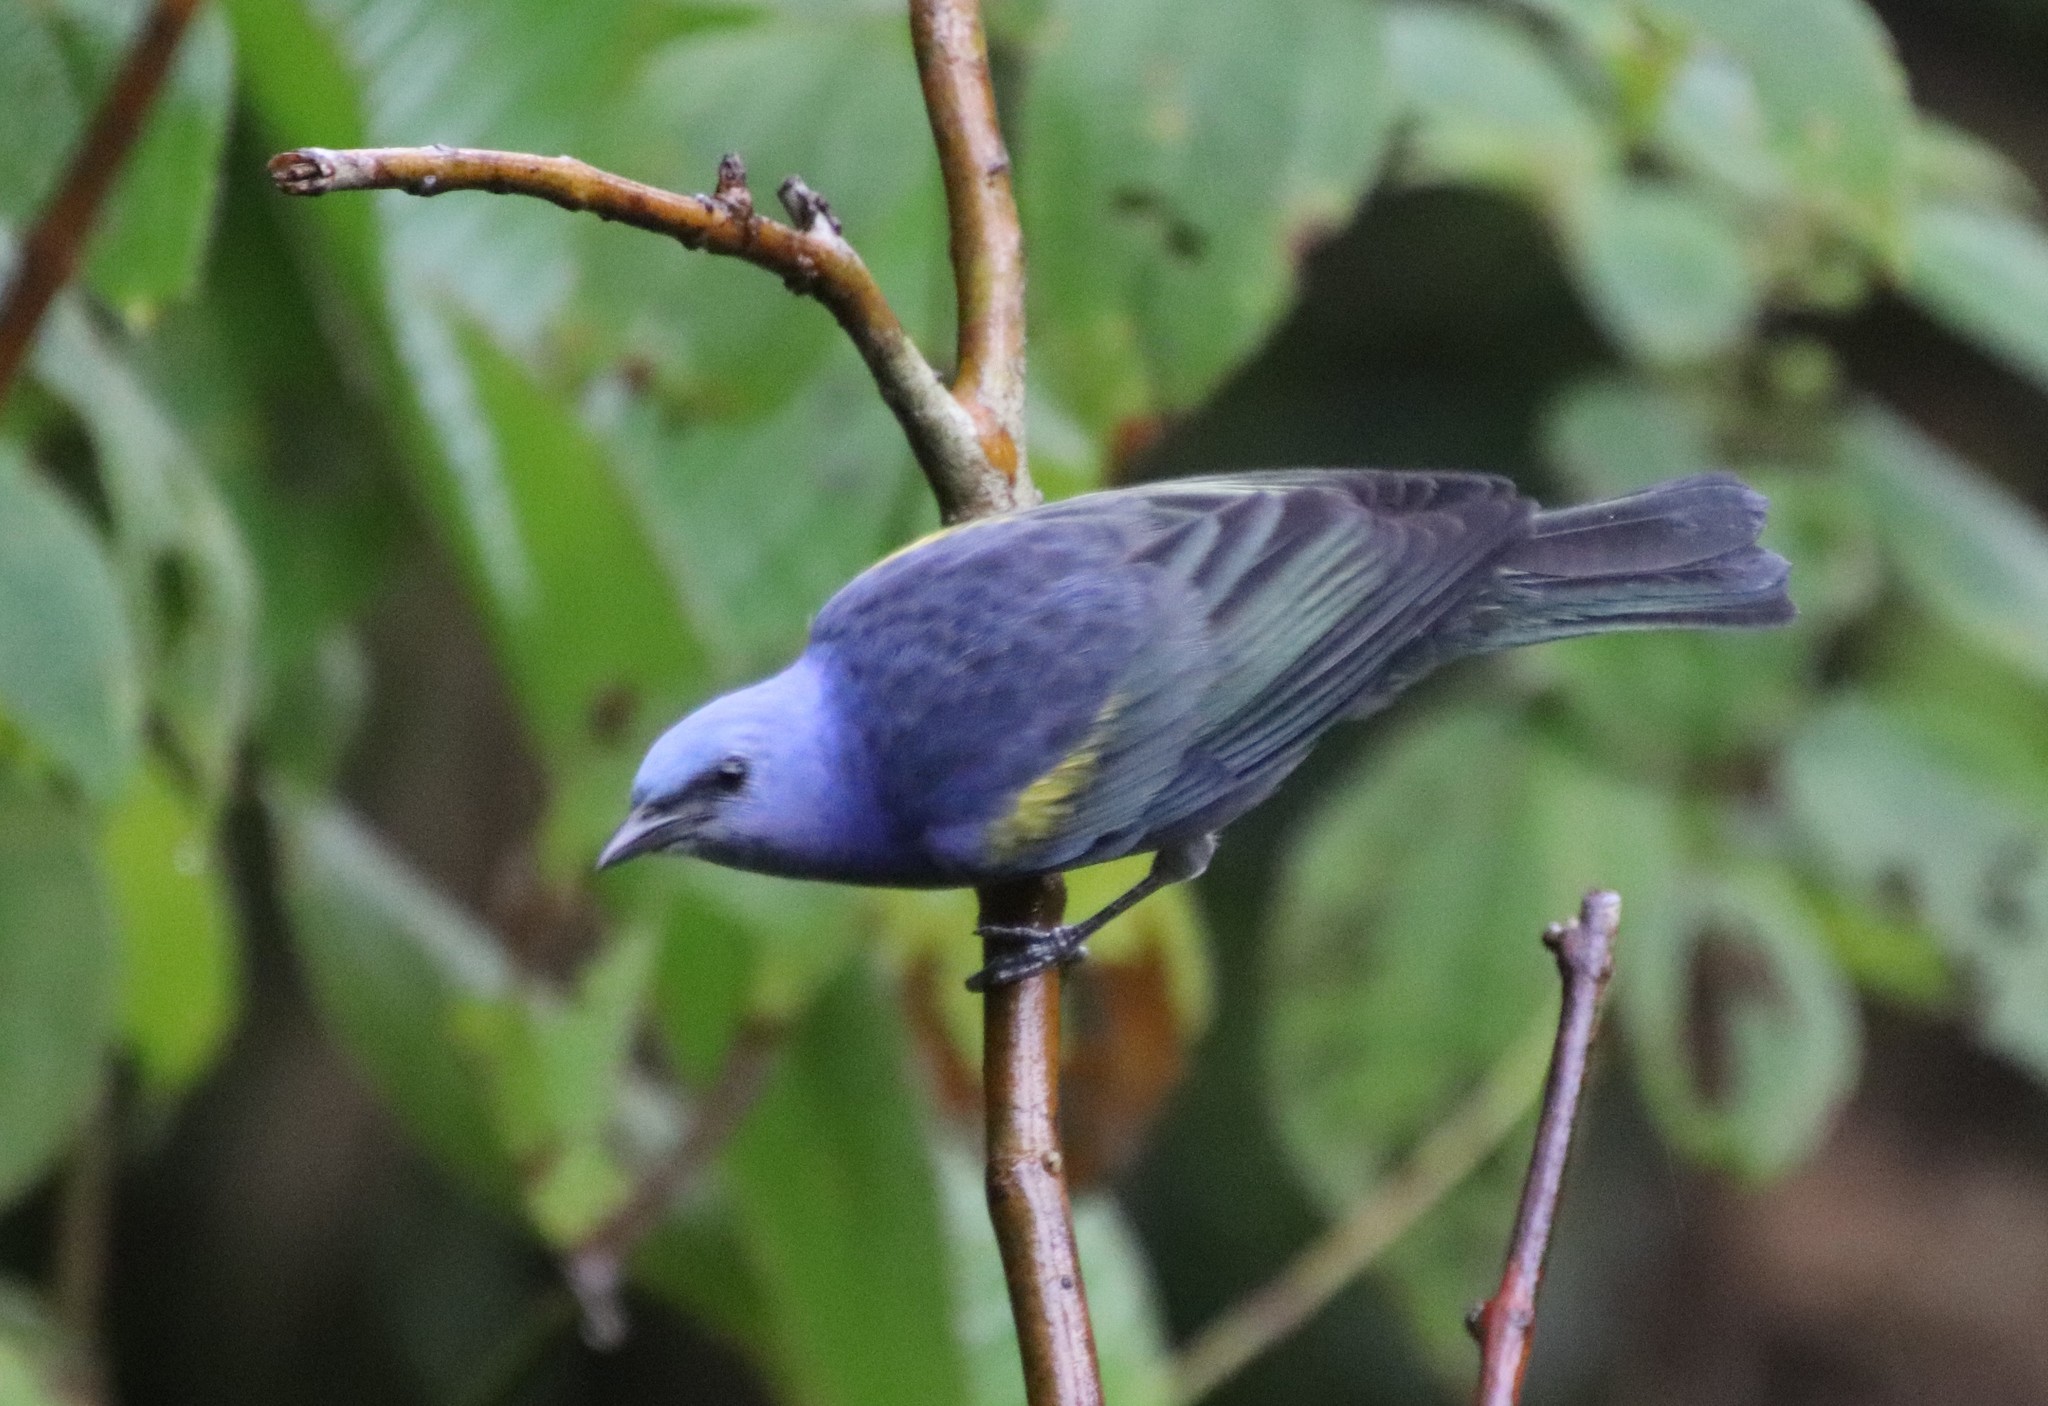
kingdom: Animalia
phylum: Chordata
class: Aves
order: Passeriformes
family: Thraupidae
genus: Thraupis
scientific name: Thraupis ornata
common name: Golden-chevroned tanager
